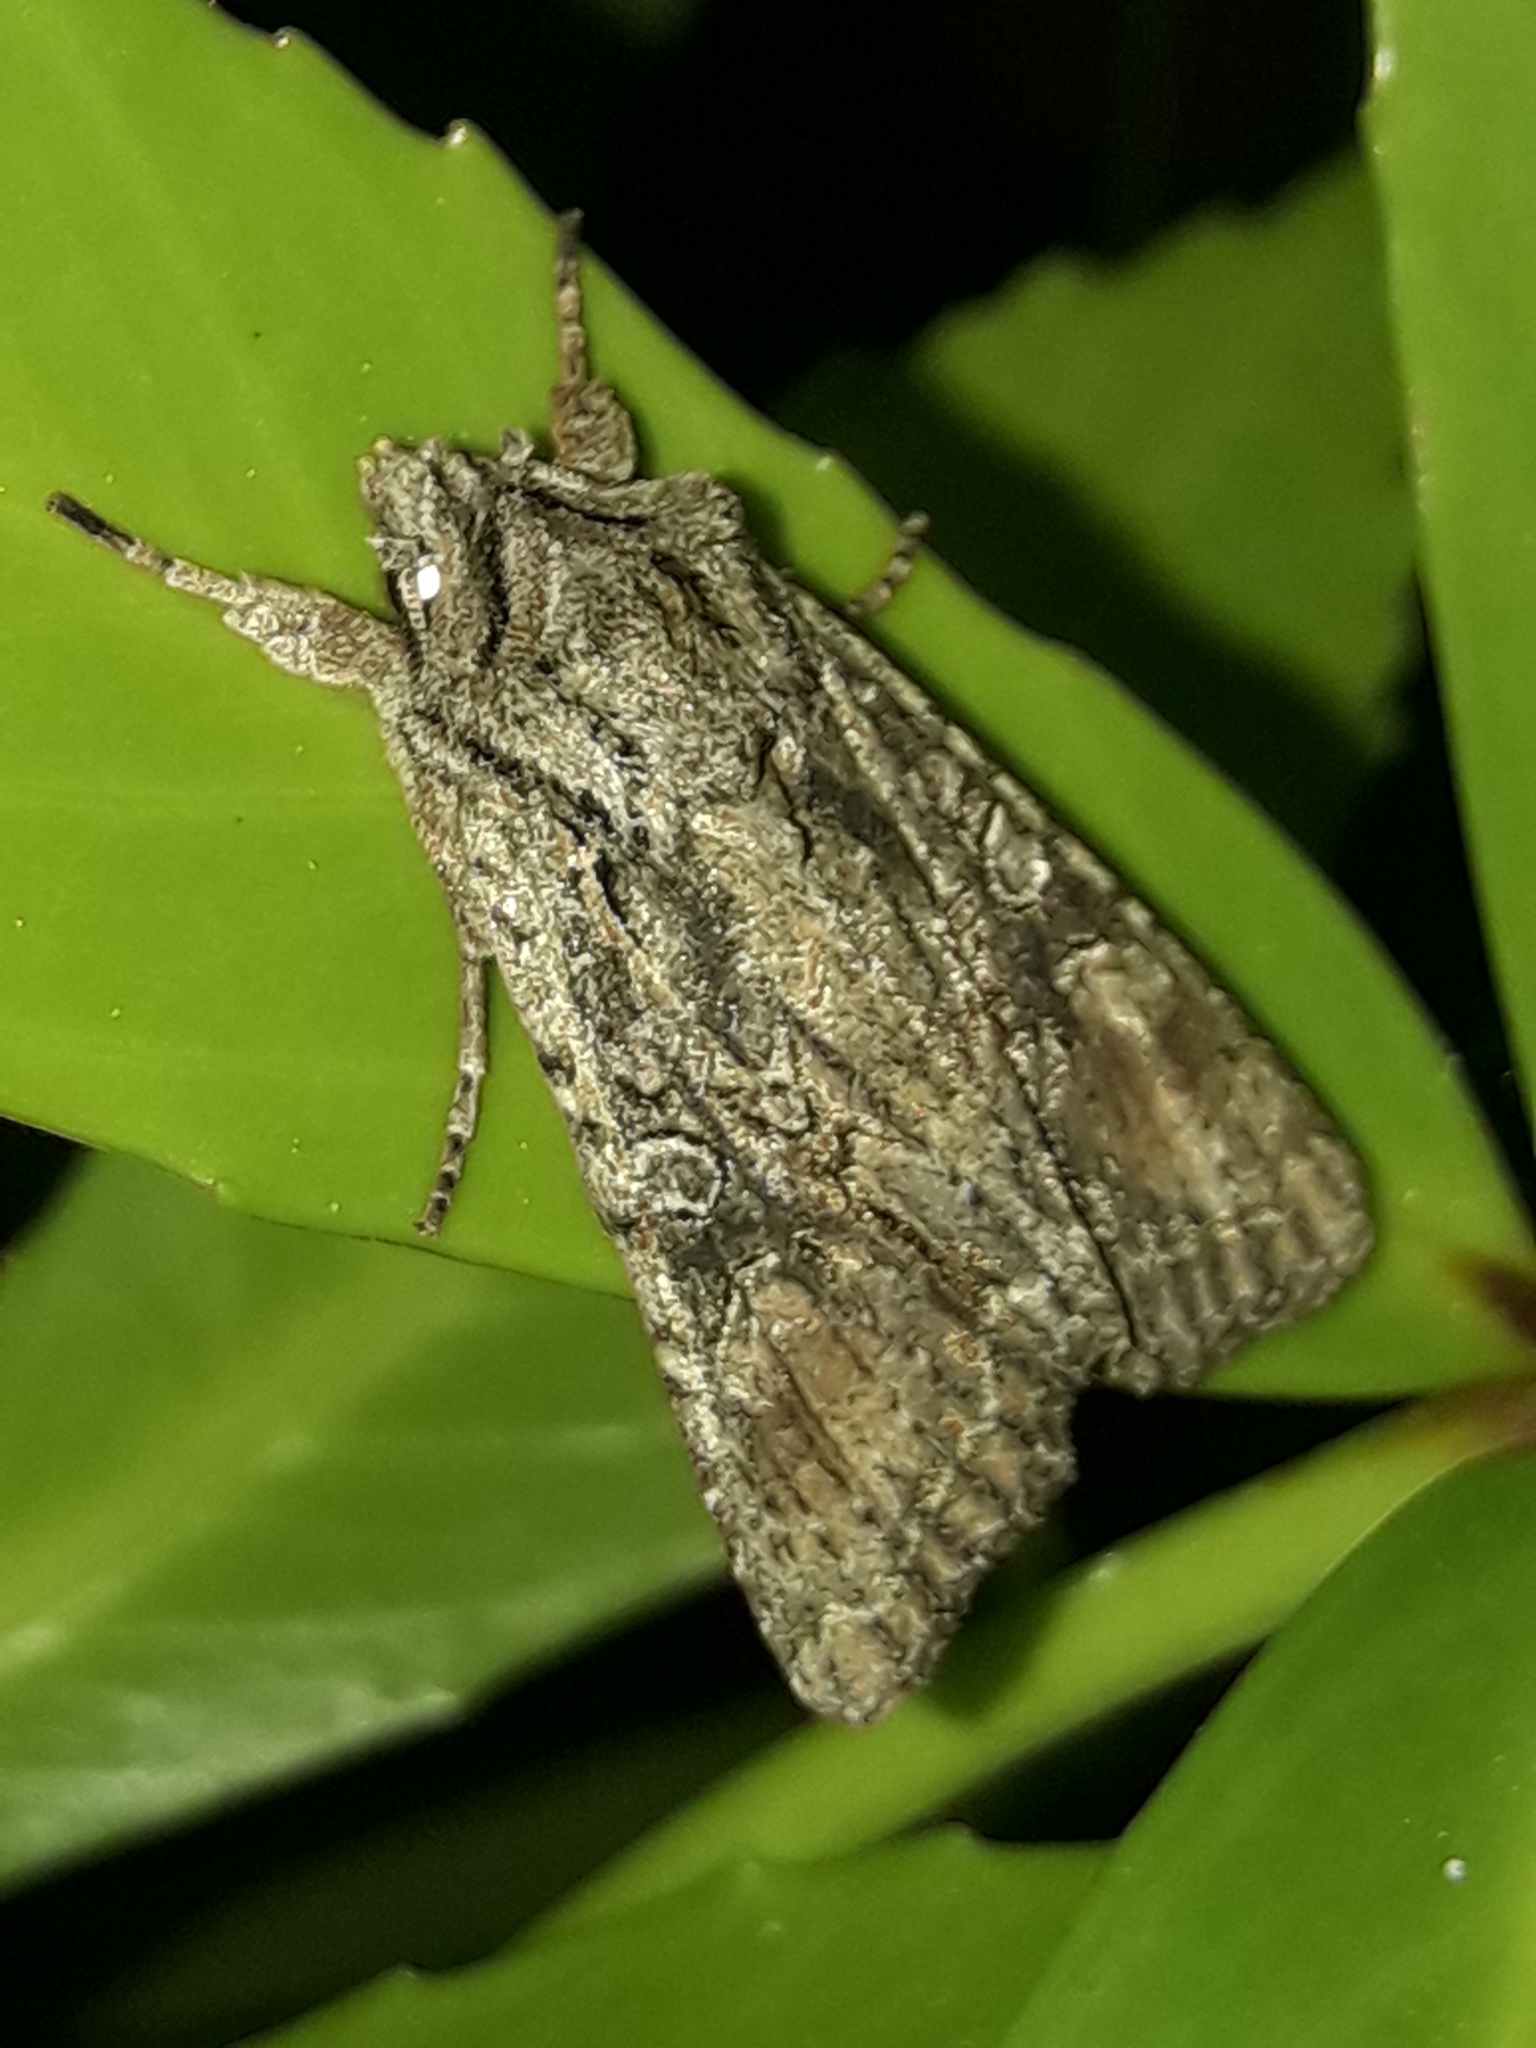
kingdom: Animalia
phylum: Arthropoda
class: Insecta
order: Lepidoptera
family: Noctuidae
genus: Ichneutica
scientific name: Ichneutica mutans
